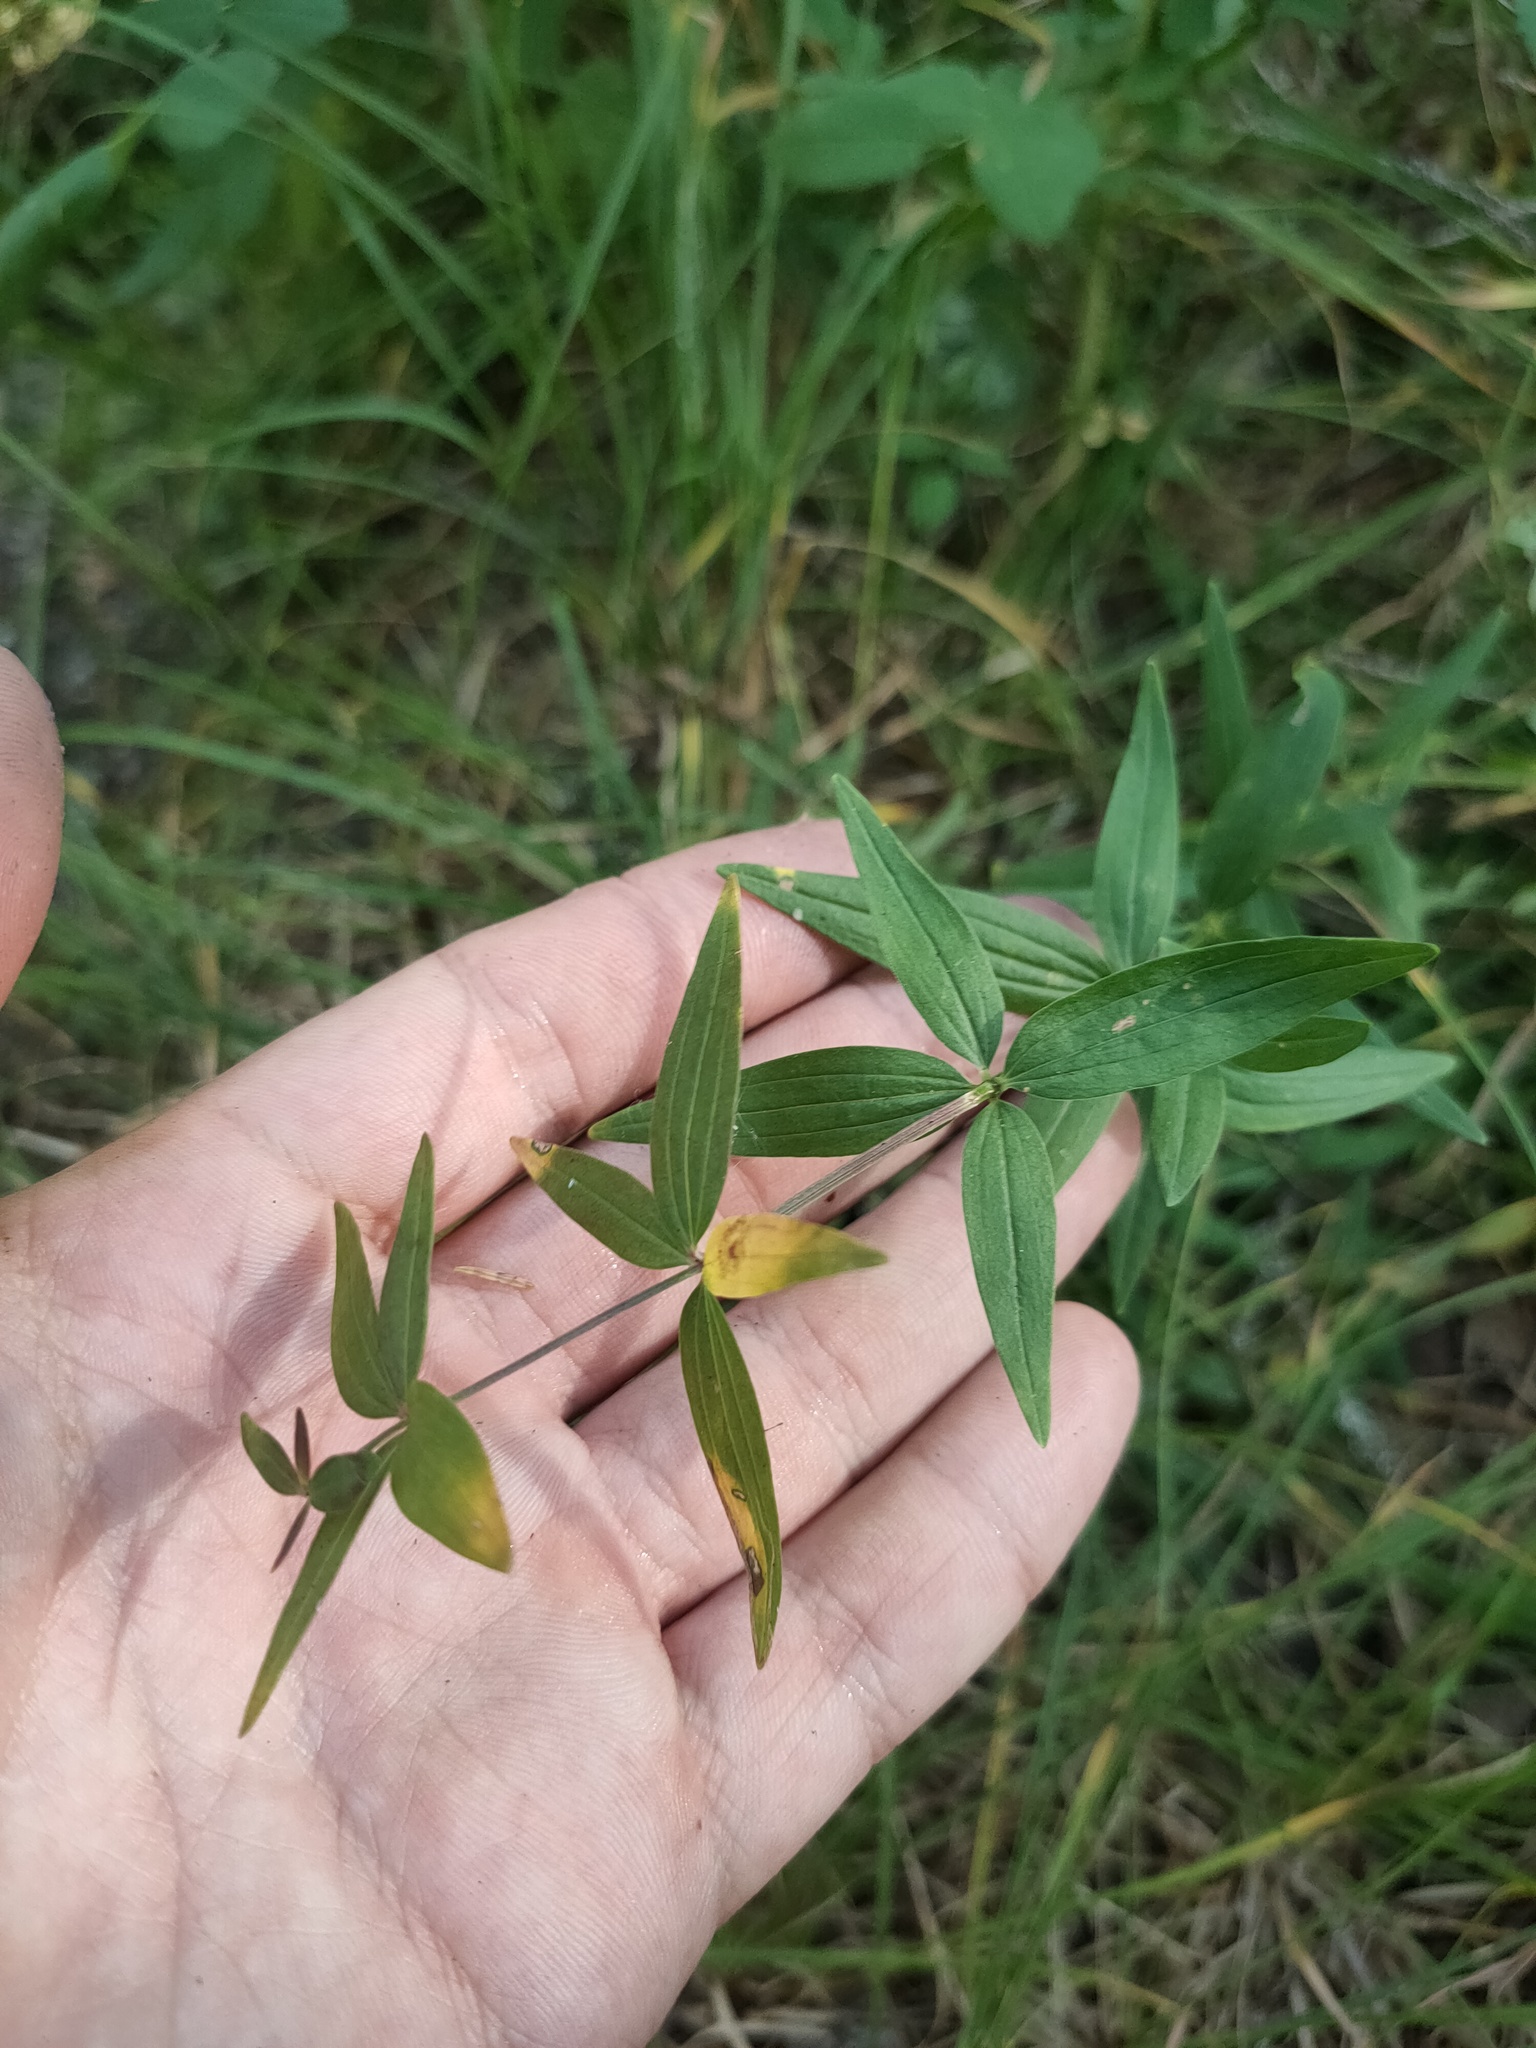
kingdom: Plantae
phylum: Tracheophyta
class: Magnoliopsida
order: Gentianales
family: Rubiaceae
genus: Galium
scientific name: Galium boreale
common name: Northern bedstraw
